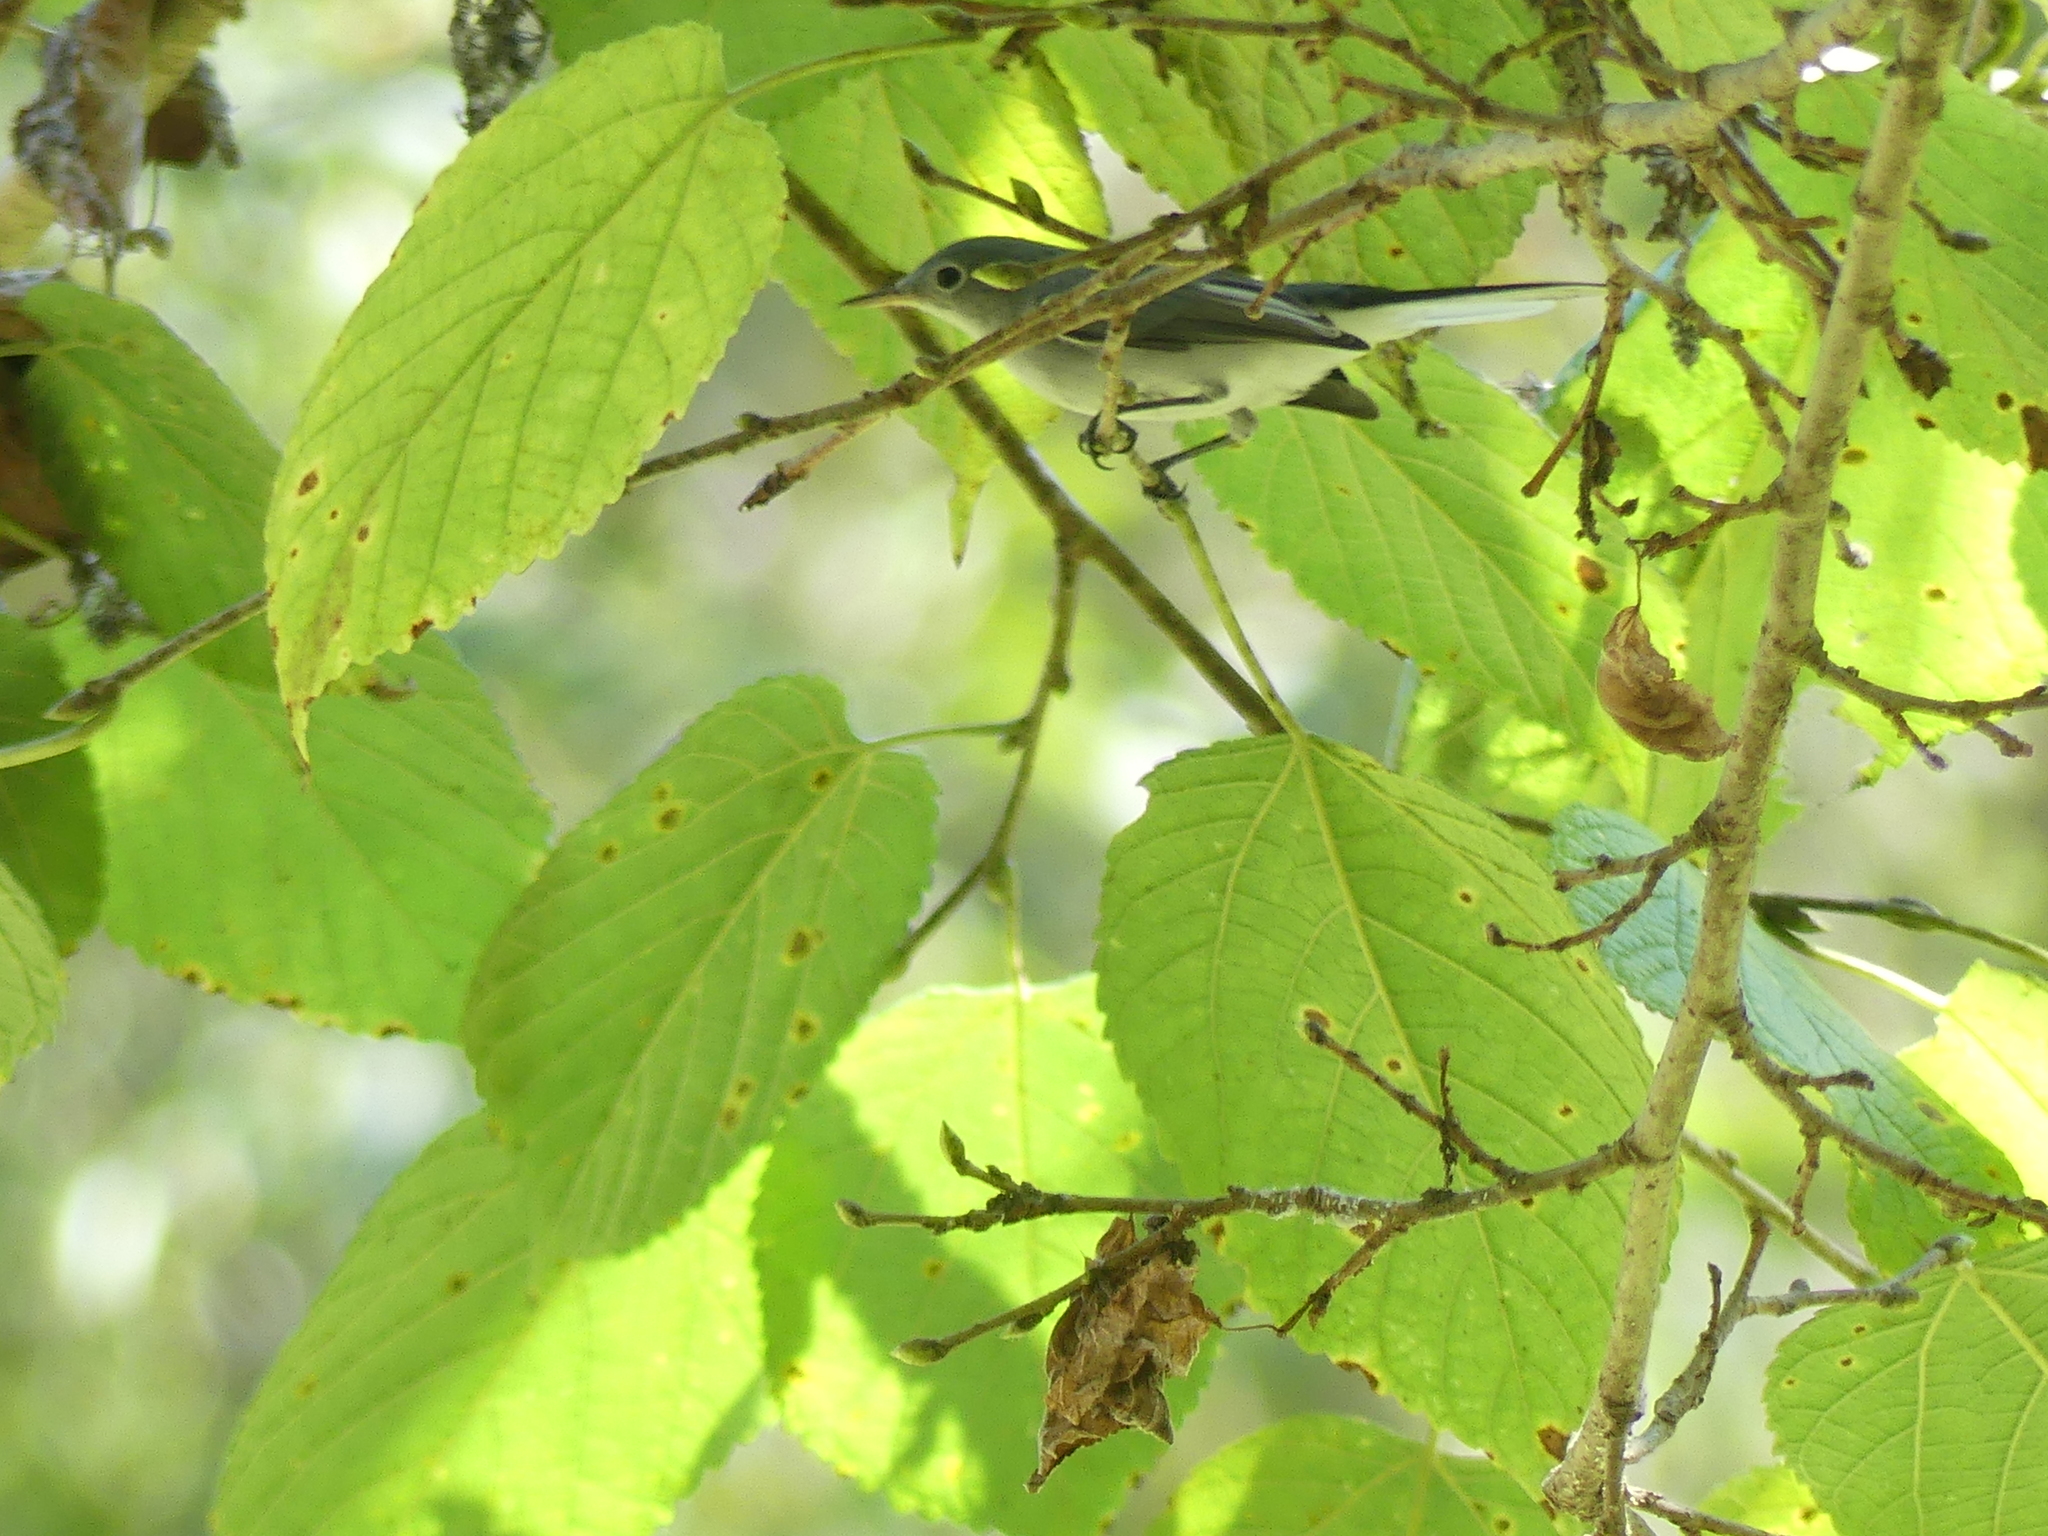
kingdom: Animalia
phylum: Chordata
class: Aves
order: Passeriformes
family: Polioptilidae
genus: Polioptila
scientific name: Polioptila caerulea
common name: Blue-gray gnatcatcher
